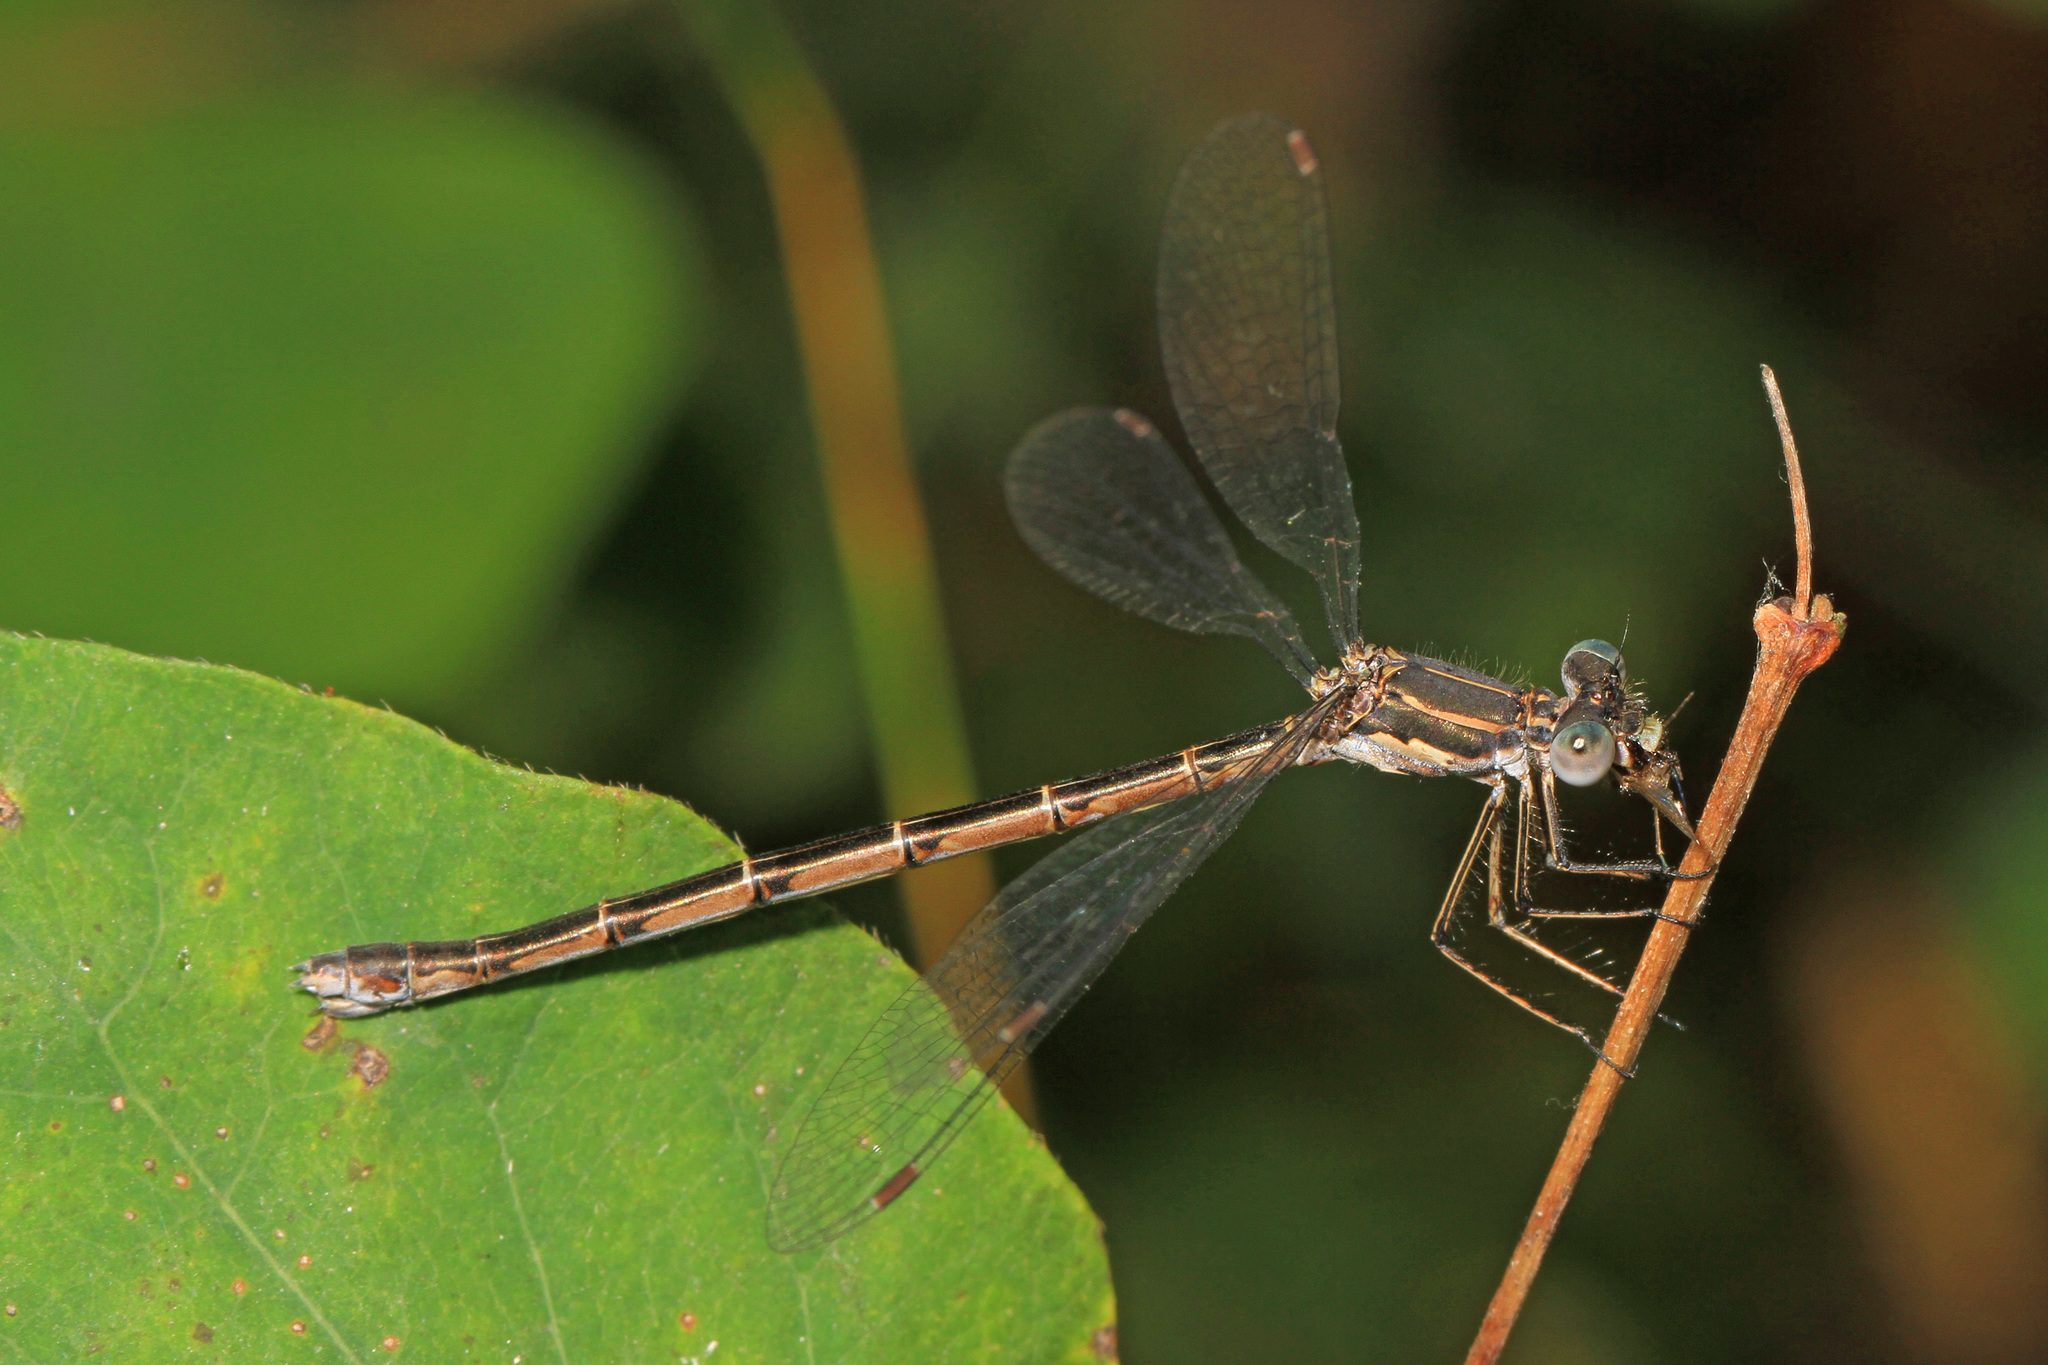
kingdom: Animalia
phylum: Arthropoda
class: Insecta
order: Odonata
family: Lestidae
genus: Lestes
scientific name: Lestes congener
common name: Spotted spreadwing
